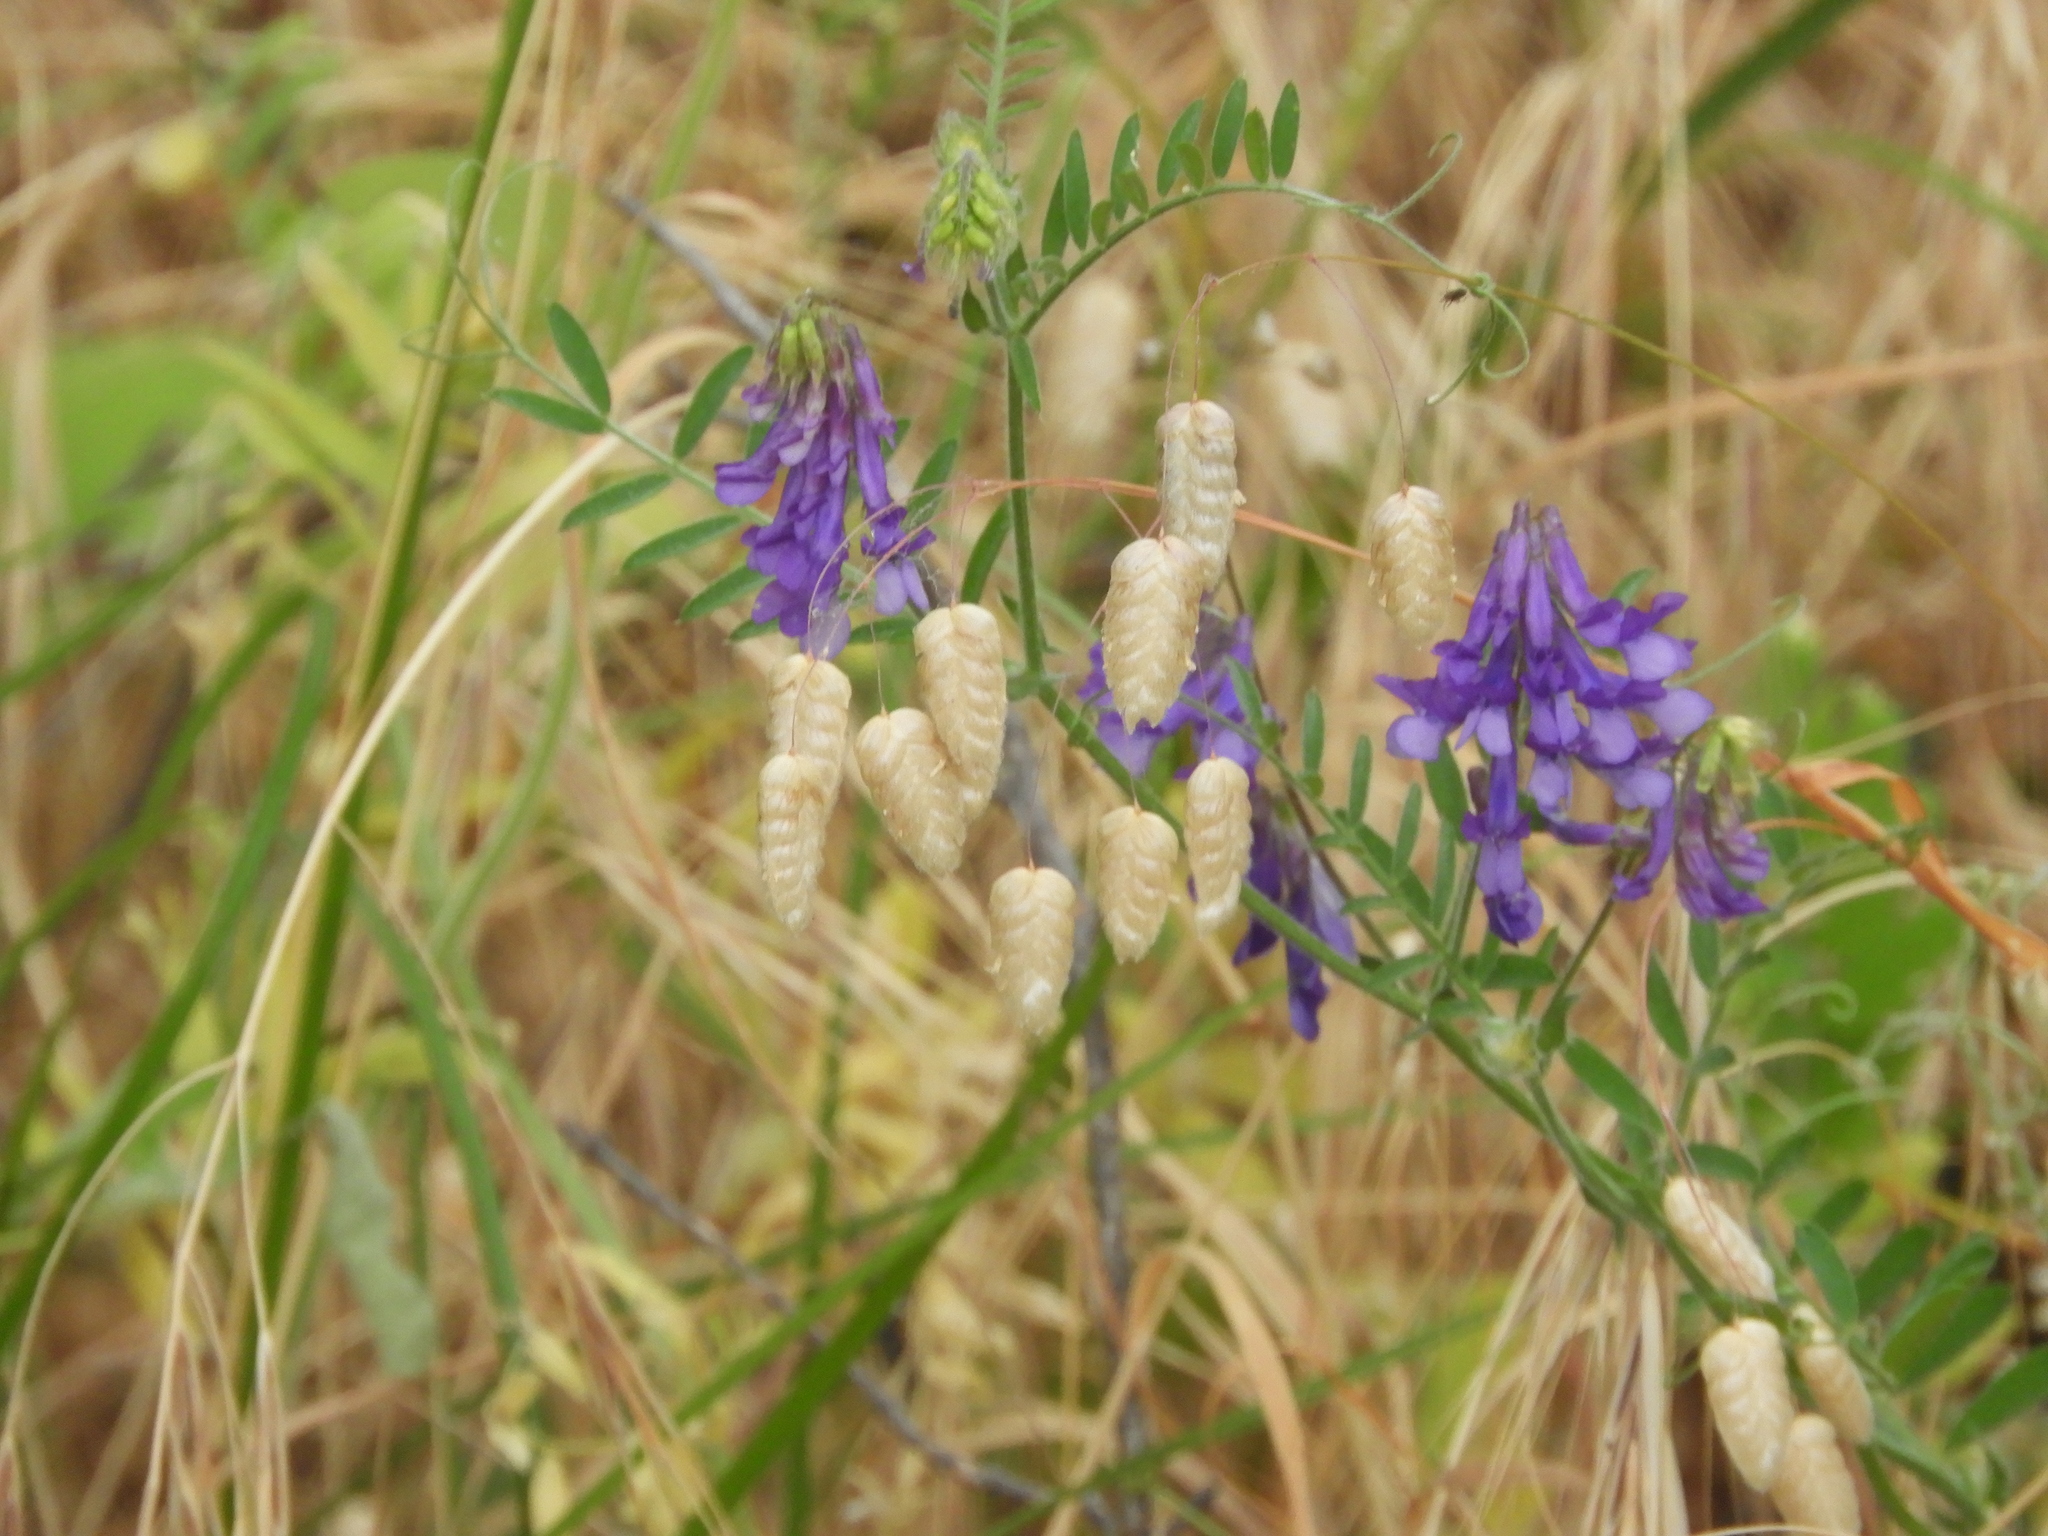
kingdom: Plantae
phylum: Tracheophyta
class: Magnoliopsida
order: Fabales
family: Fabaceae
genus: Vicia
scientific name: Vicia villosa
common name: Fodder vetch
